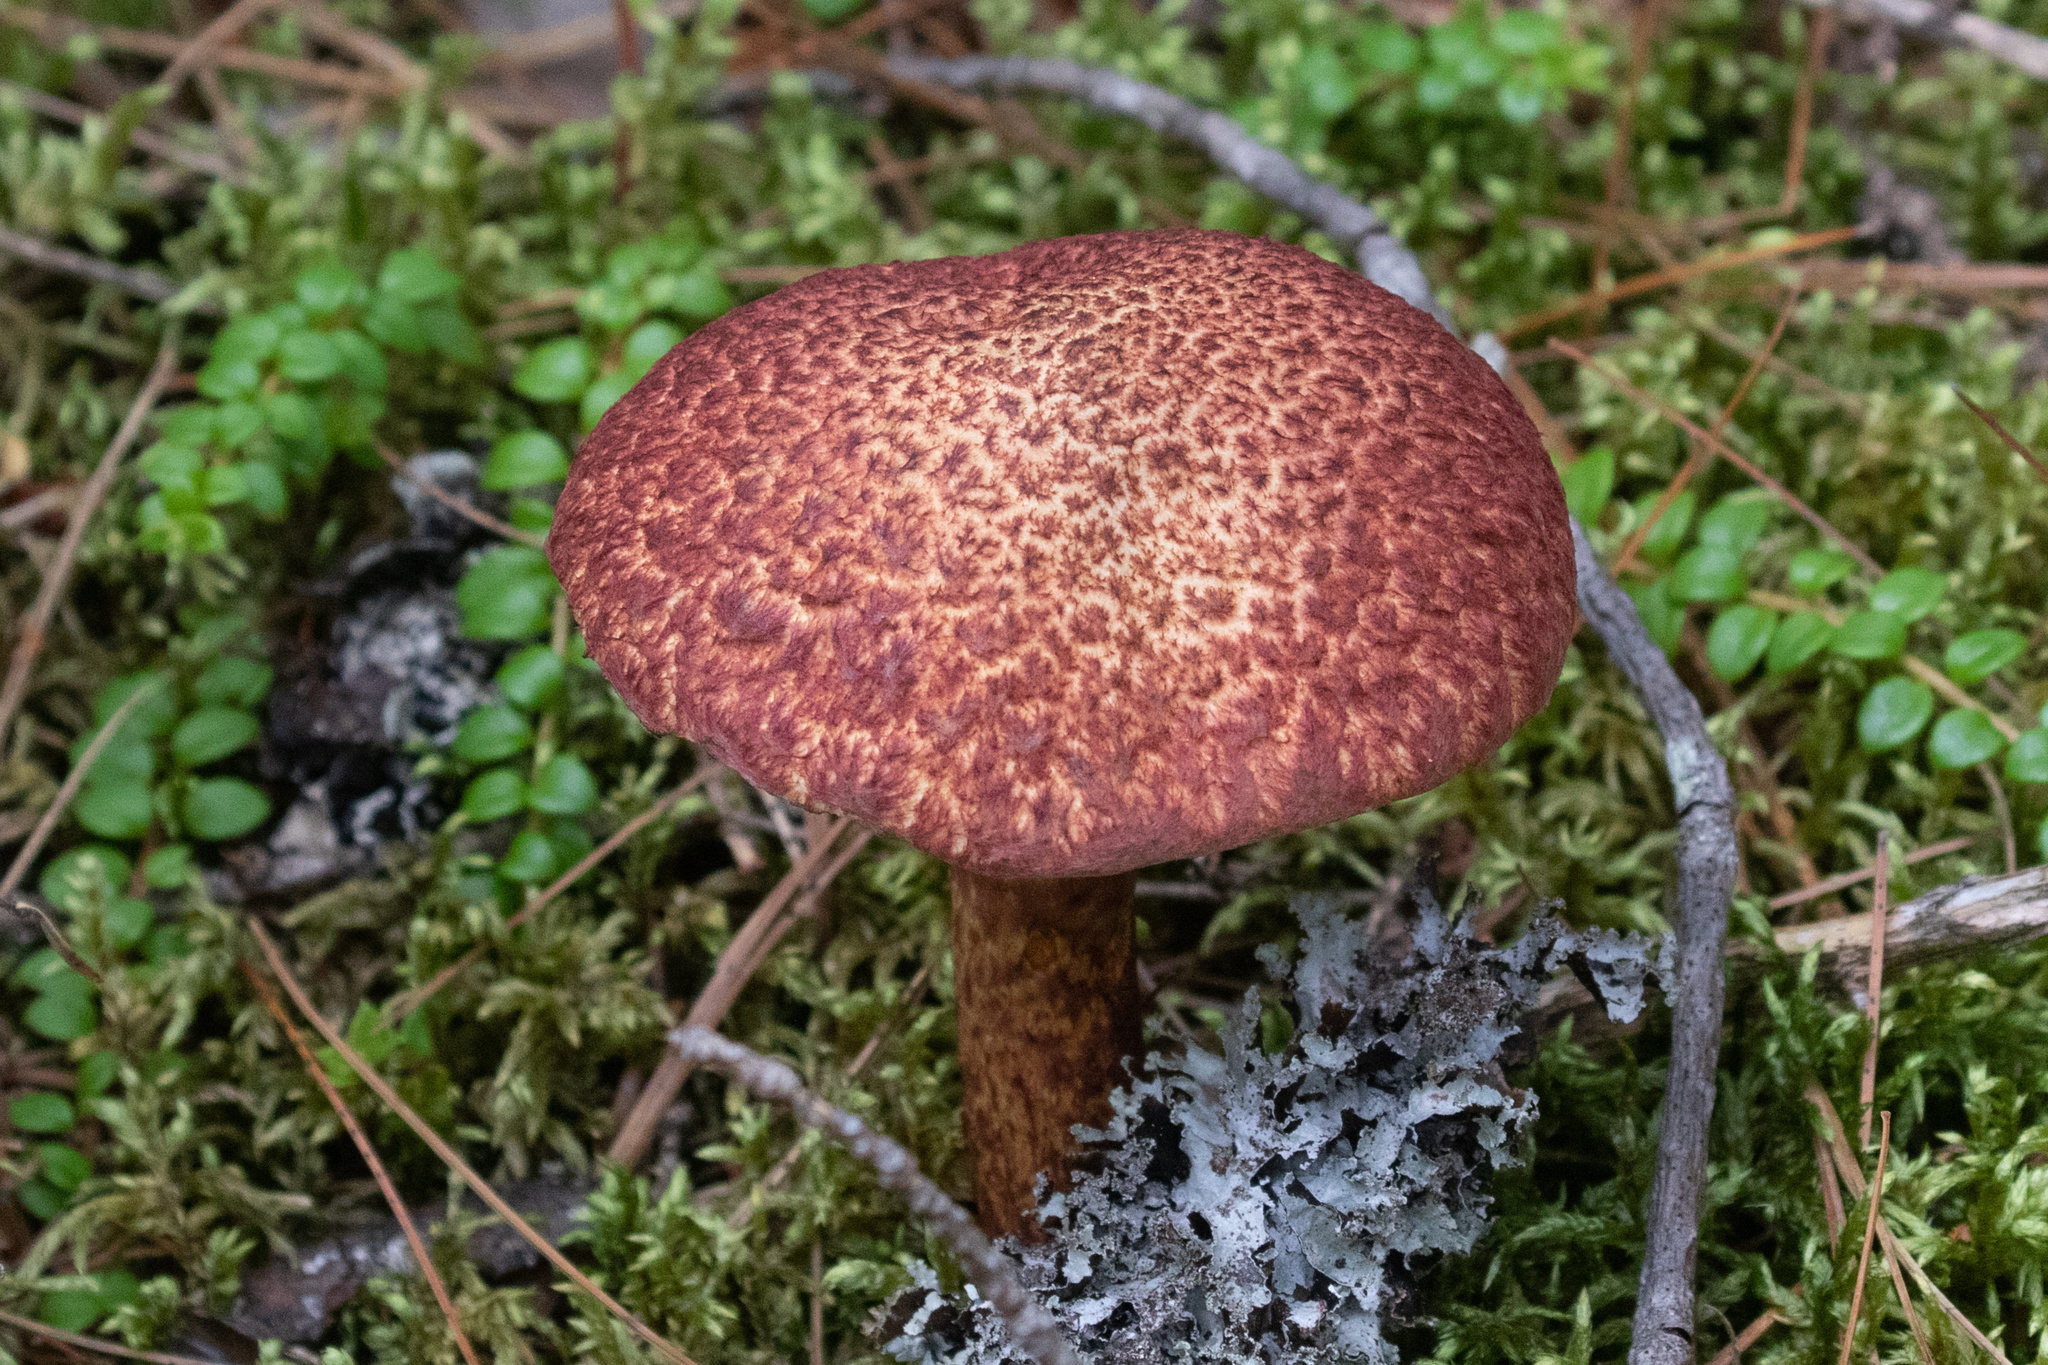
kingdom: Fungi
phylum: Basidiomycota
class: Agaricomycetes
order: Boletales
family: Suillaceae
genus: Suillus
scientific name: Suillus spraguei
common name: Painted suillus
